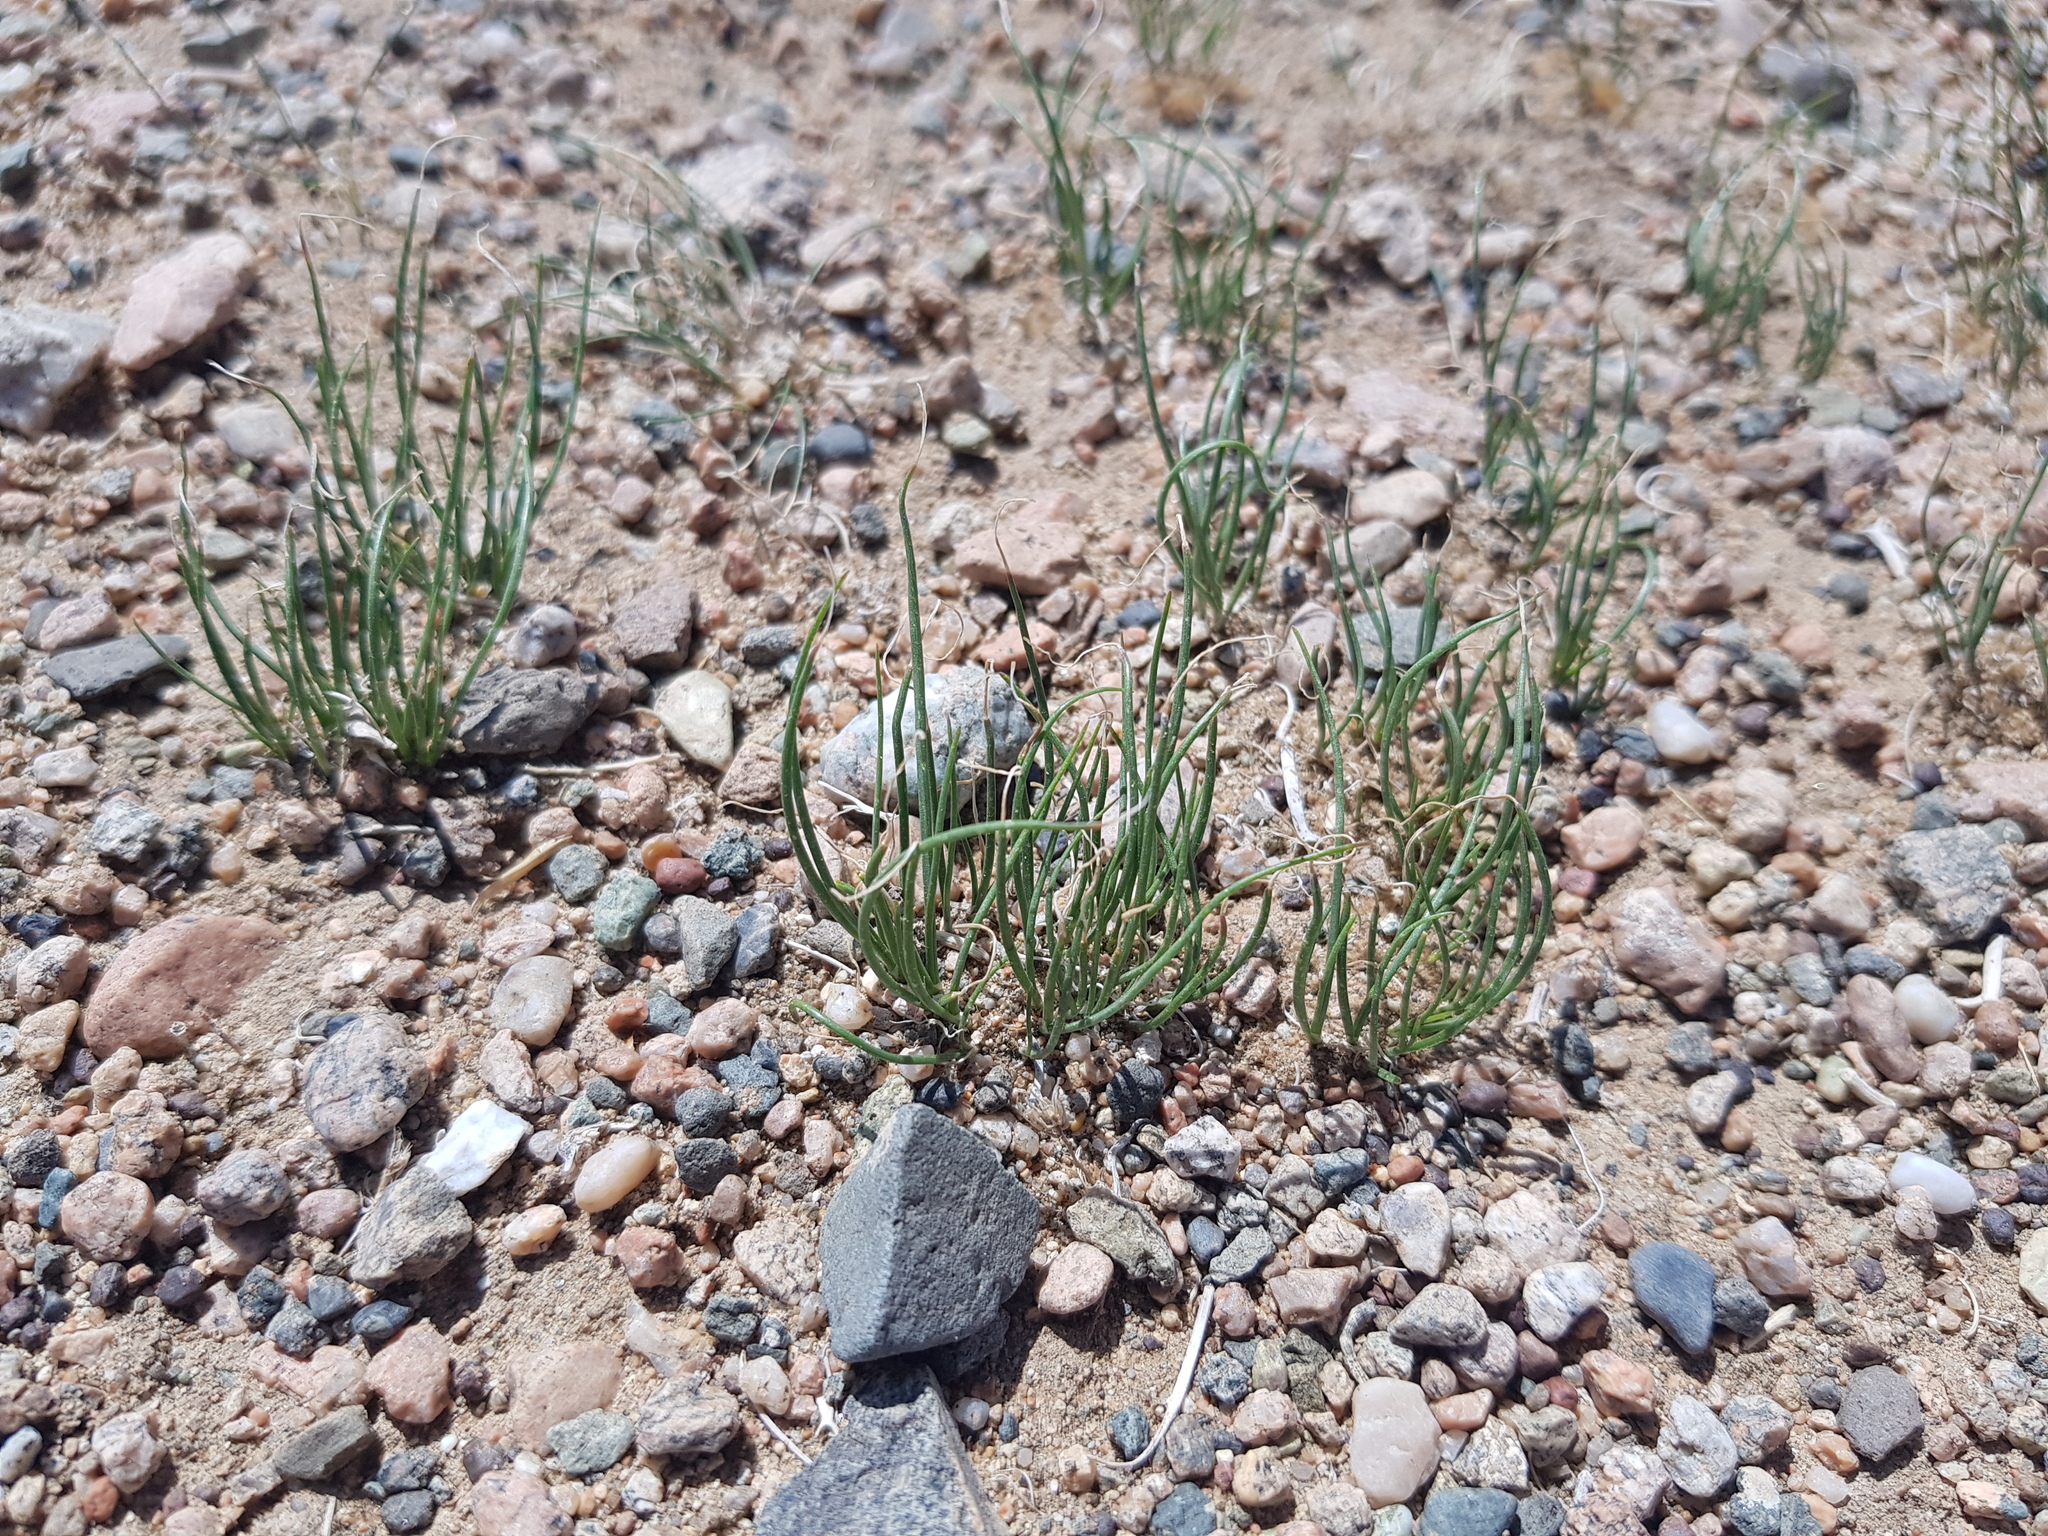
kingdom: Plantae
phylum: Tracheophyta
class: Liliopsida
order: Asparagales
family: Amaryllidaceae
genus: Allium
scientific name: Allium polyrhizum
